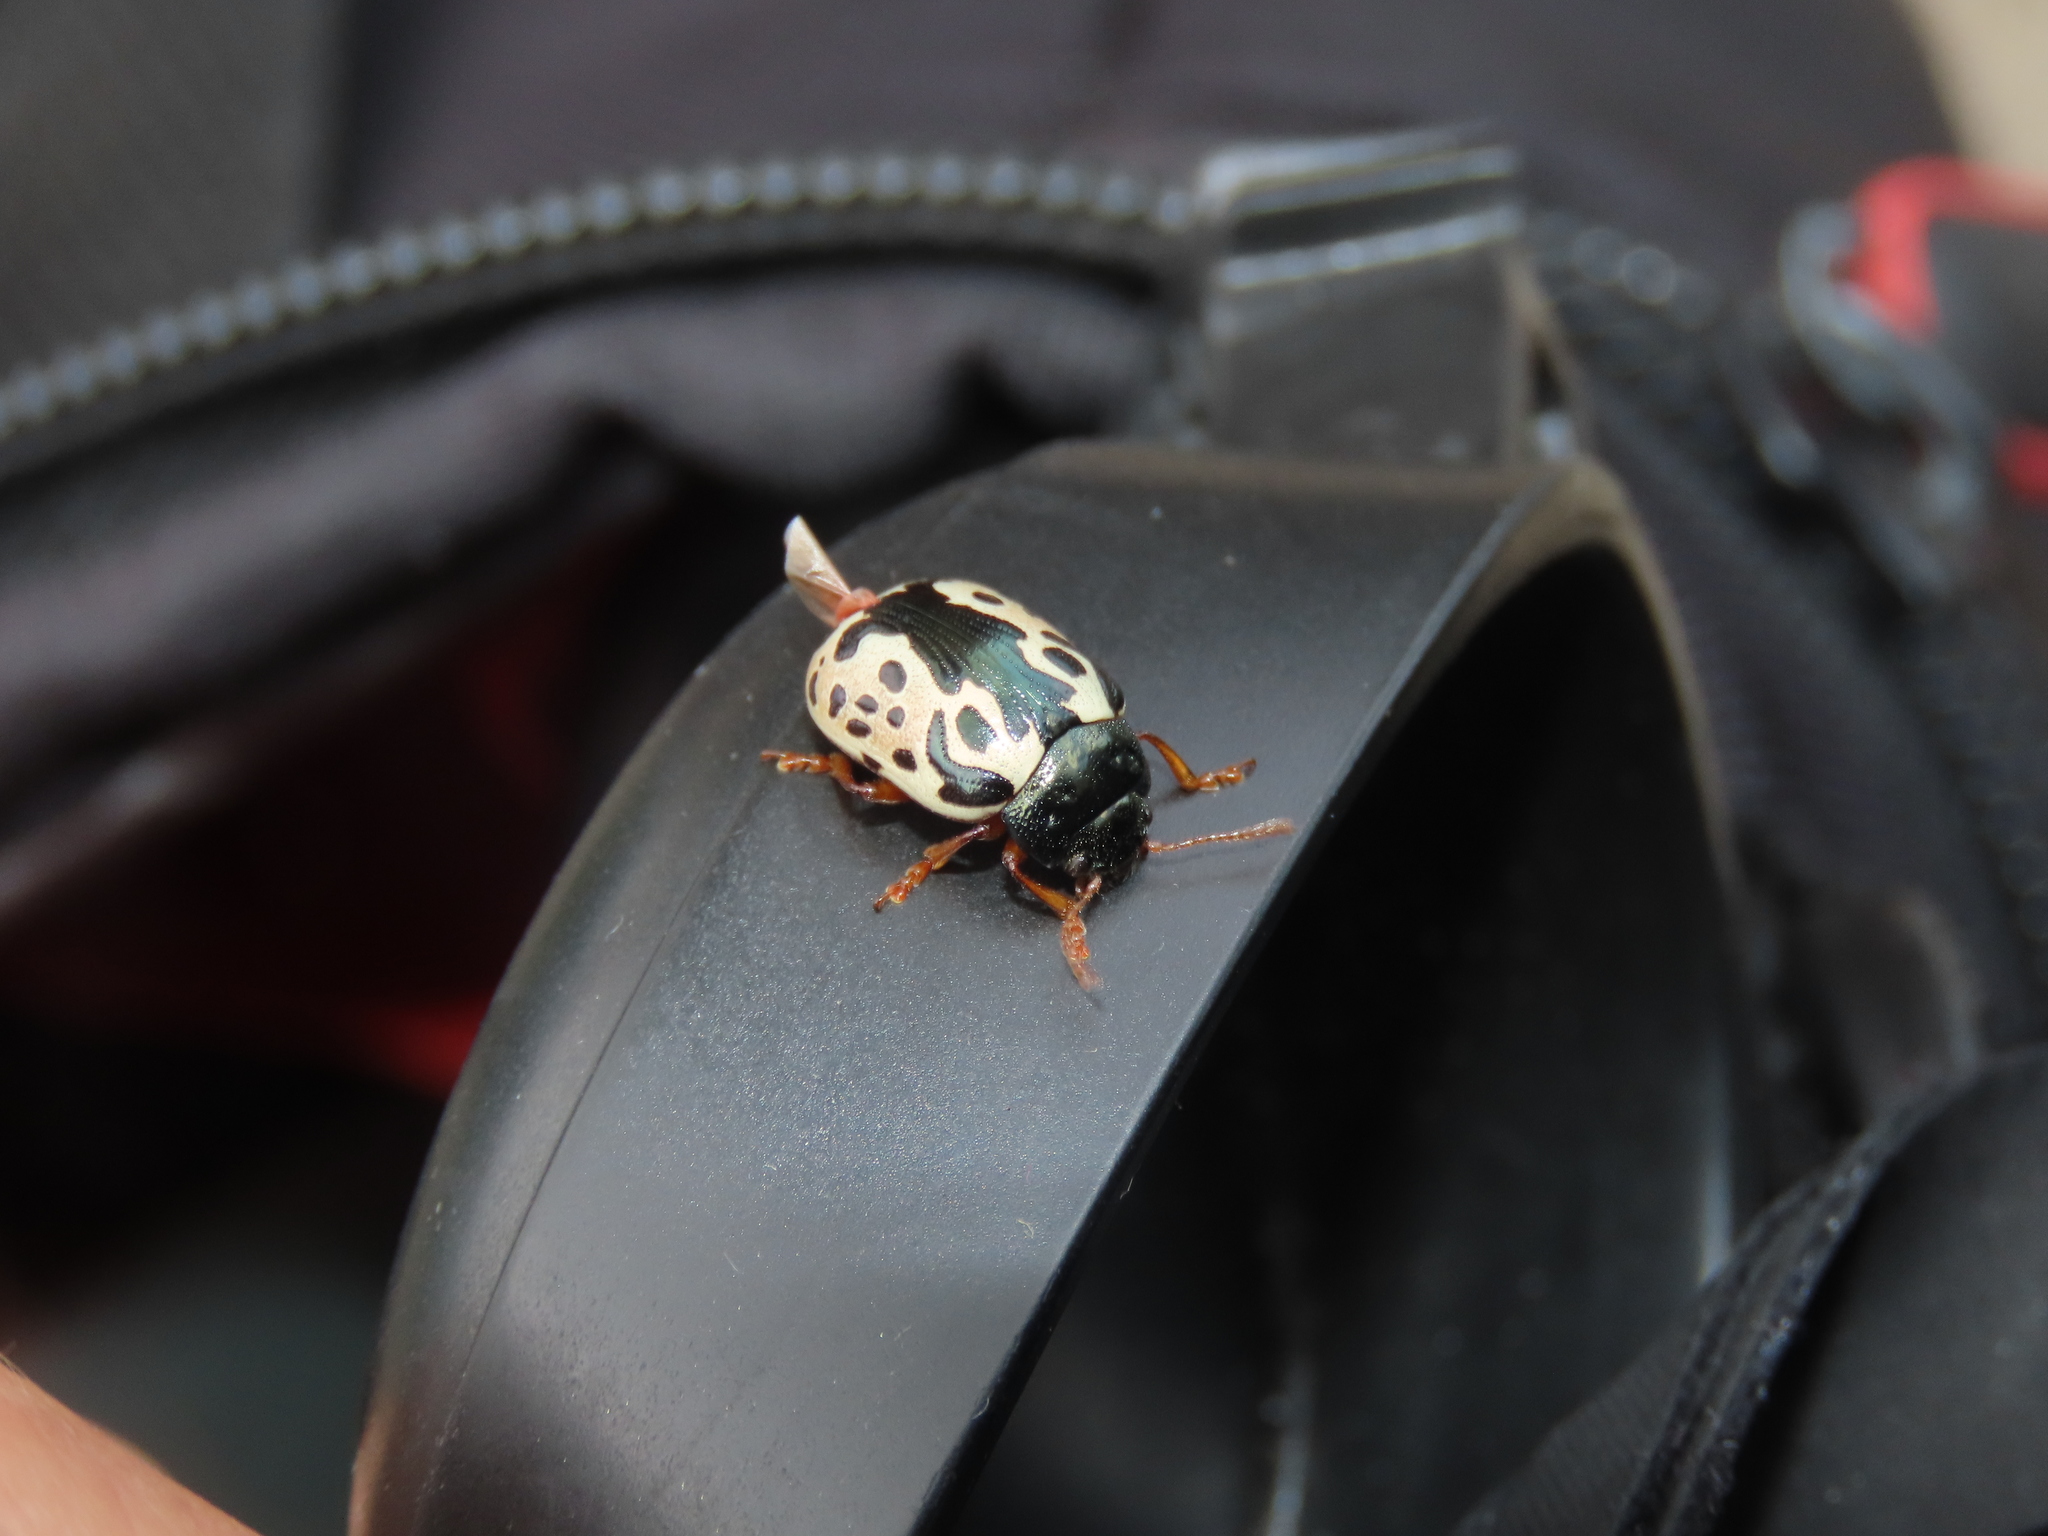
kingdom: Animalia
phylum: Arthropoda
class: Insecta
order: Coleoptera
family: Chrysomelidae
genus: Calligrapha
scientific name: Calligrapha confluens
